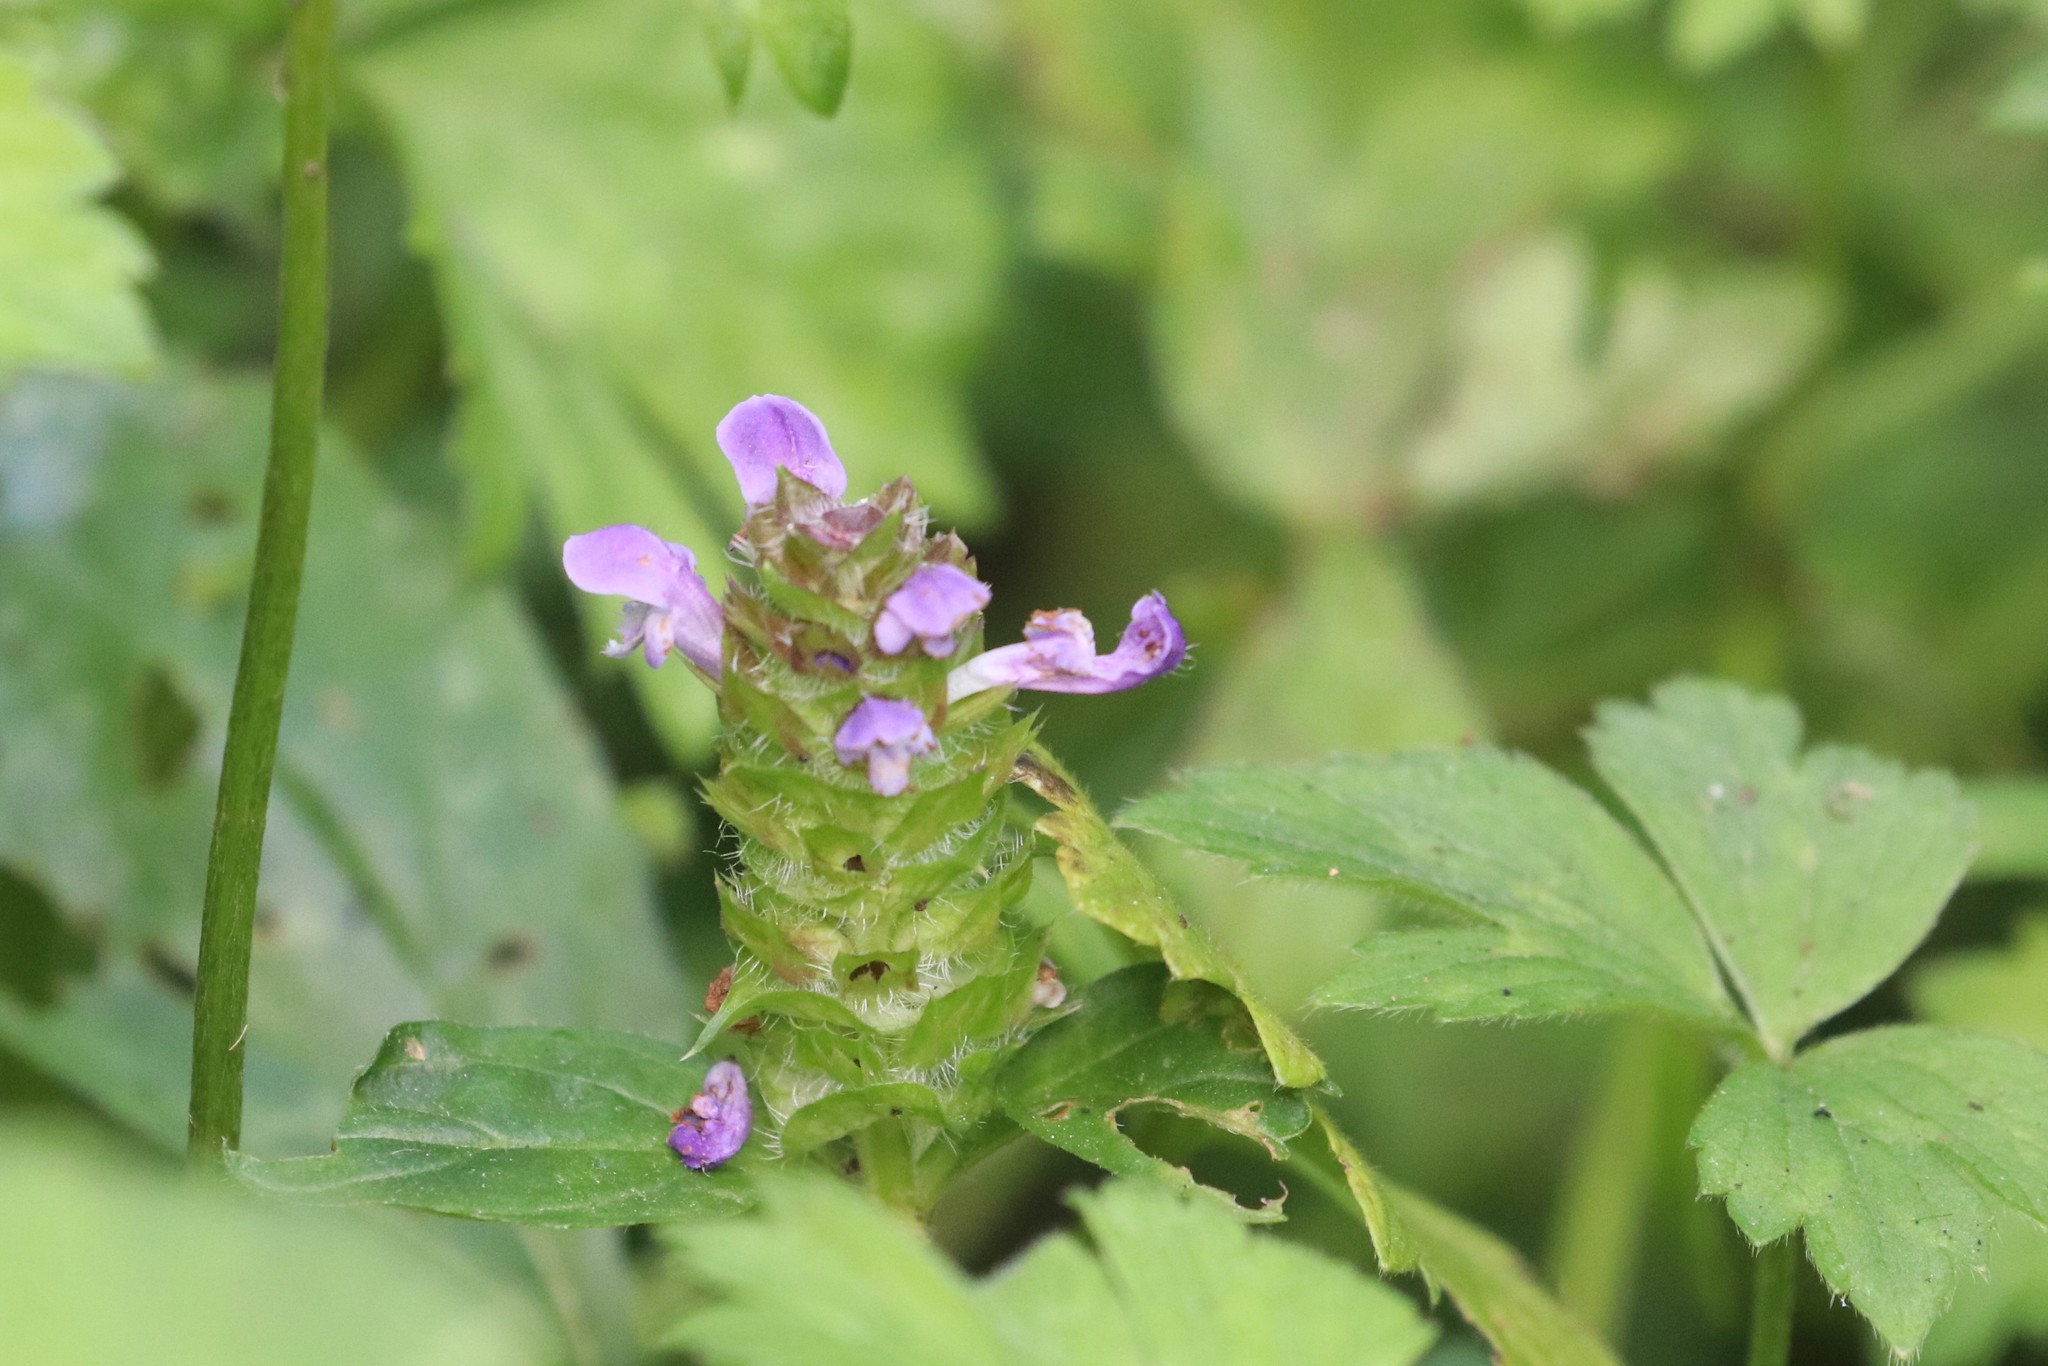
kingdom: Plantae
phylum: Tracheophyta
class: Magnoliopsida
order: Lamiales
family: Lamiaceae
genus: Prunella
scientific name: Prunella vulgaris
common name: Heal-all
